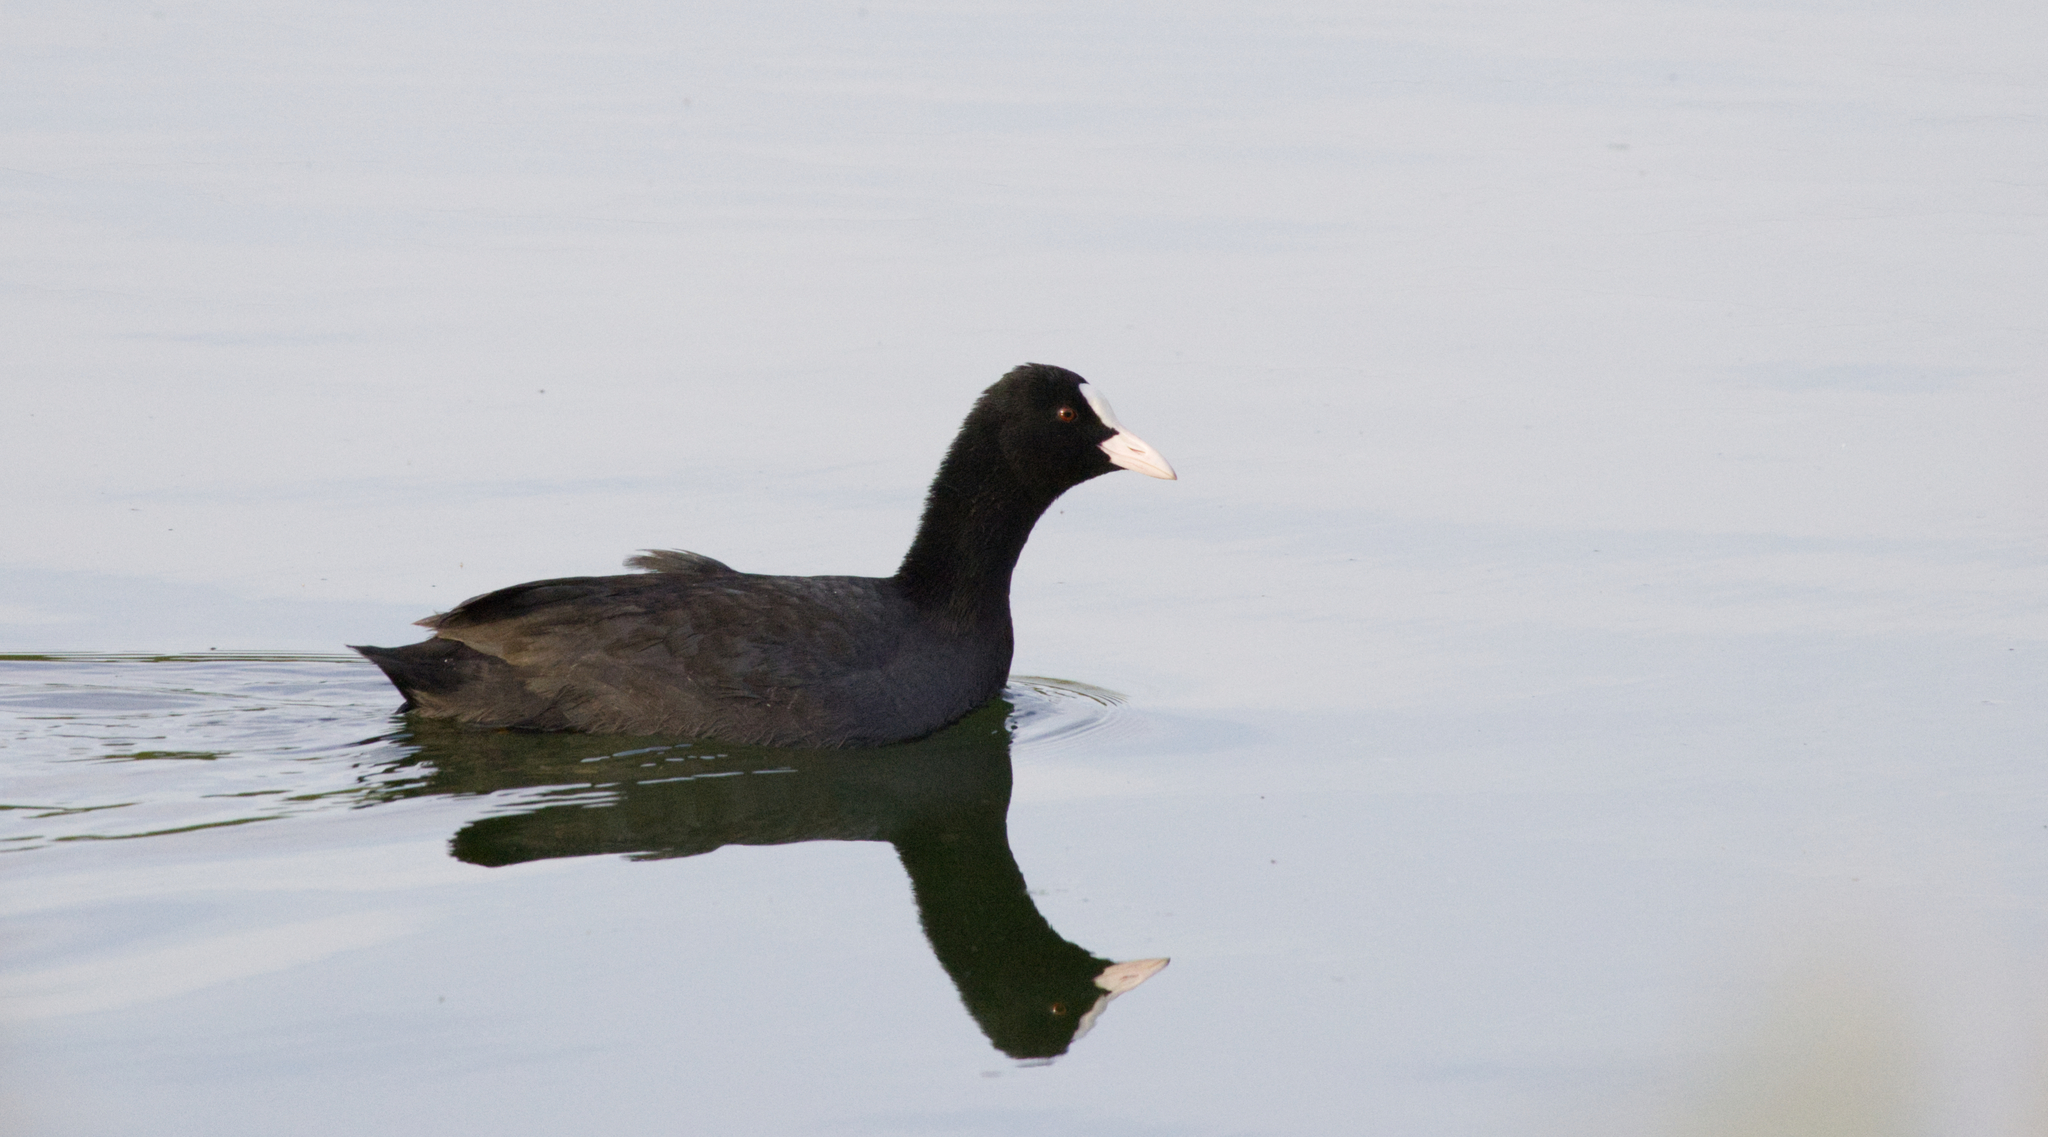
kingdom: Animalia
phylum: Chordata
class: Aves
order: Gruiformes
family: Rallidae
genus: Fulica
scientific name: Fulica atra
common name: Eurasian coot
